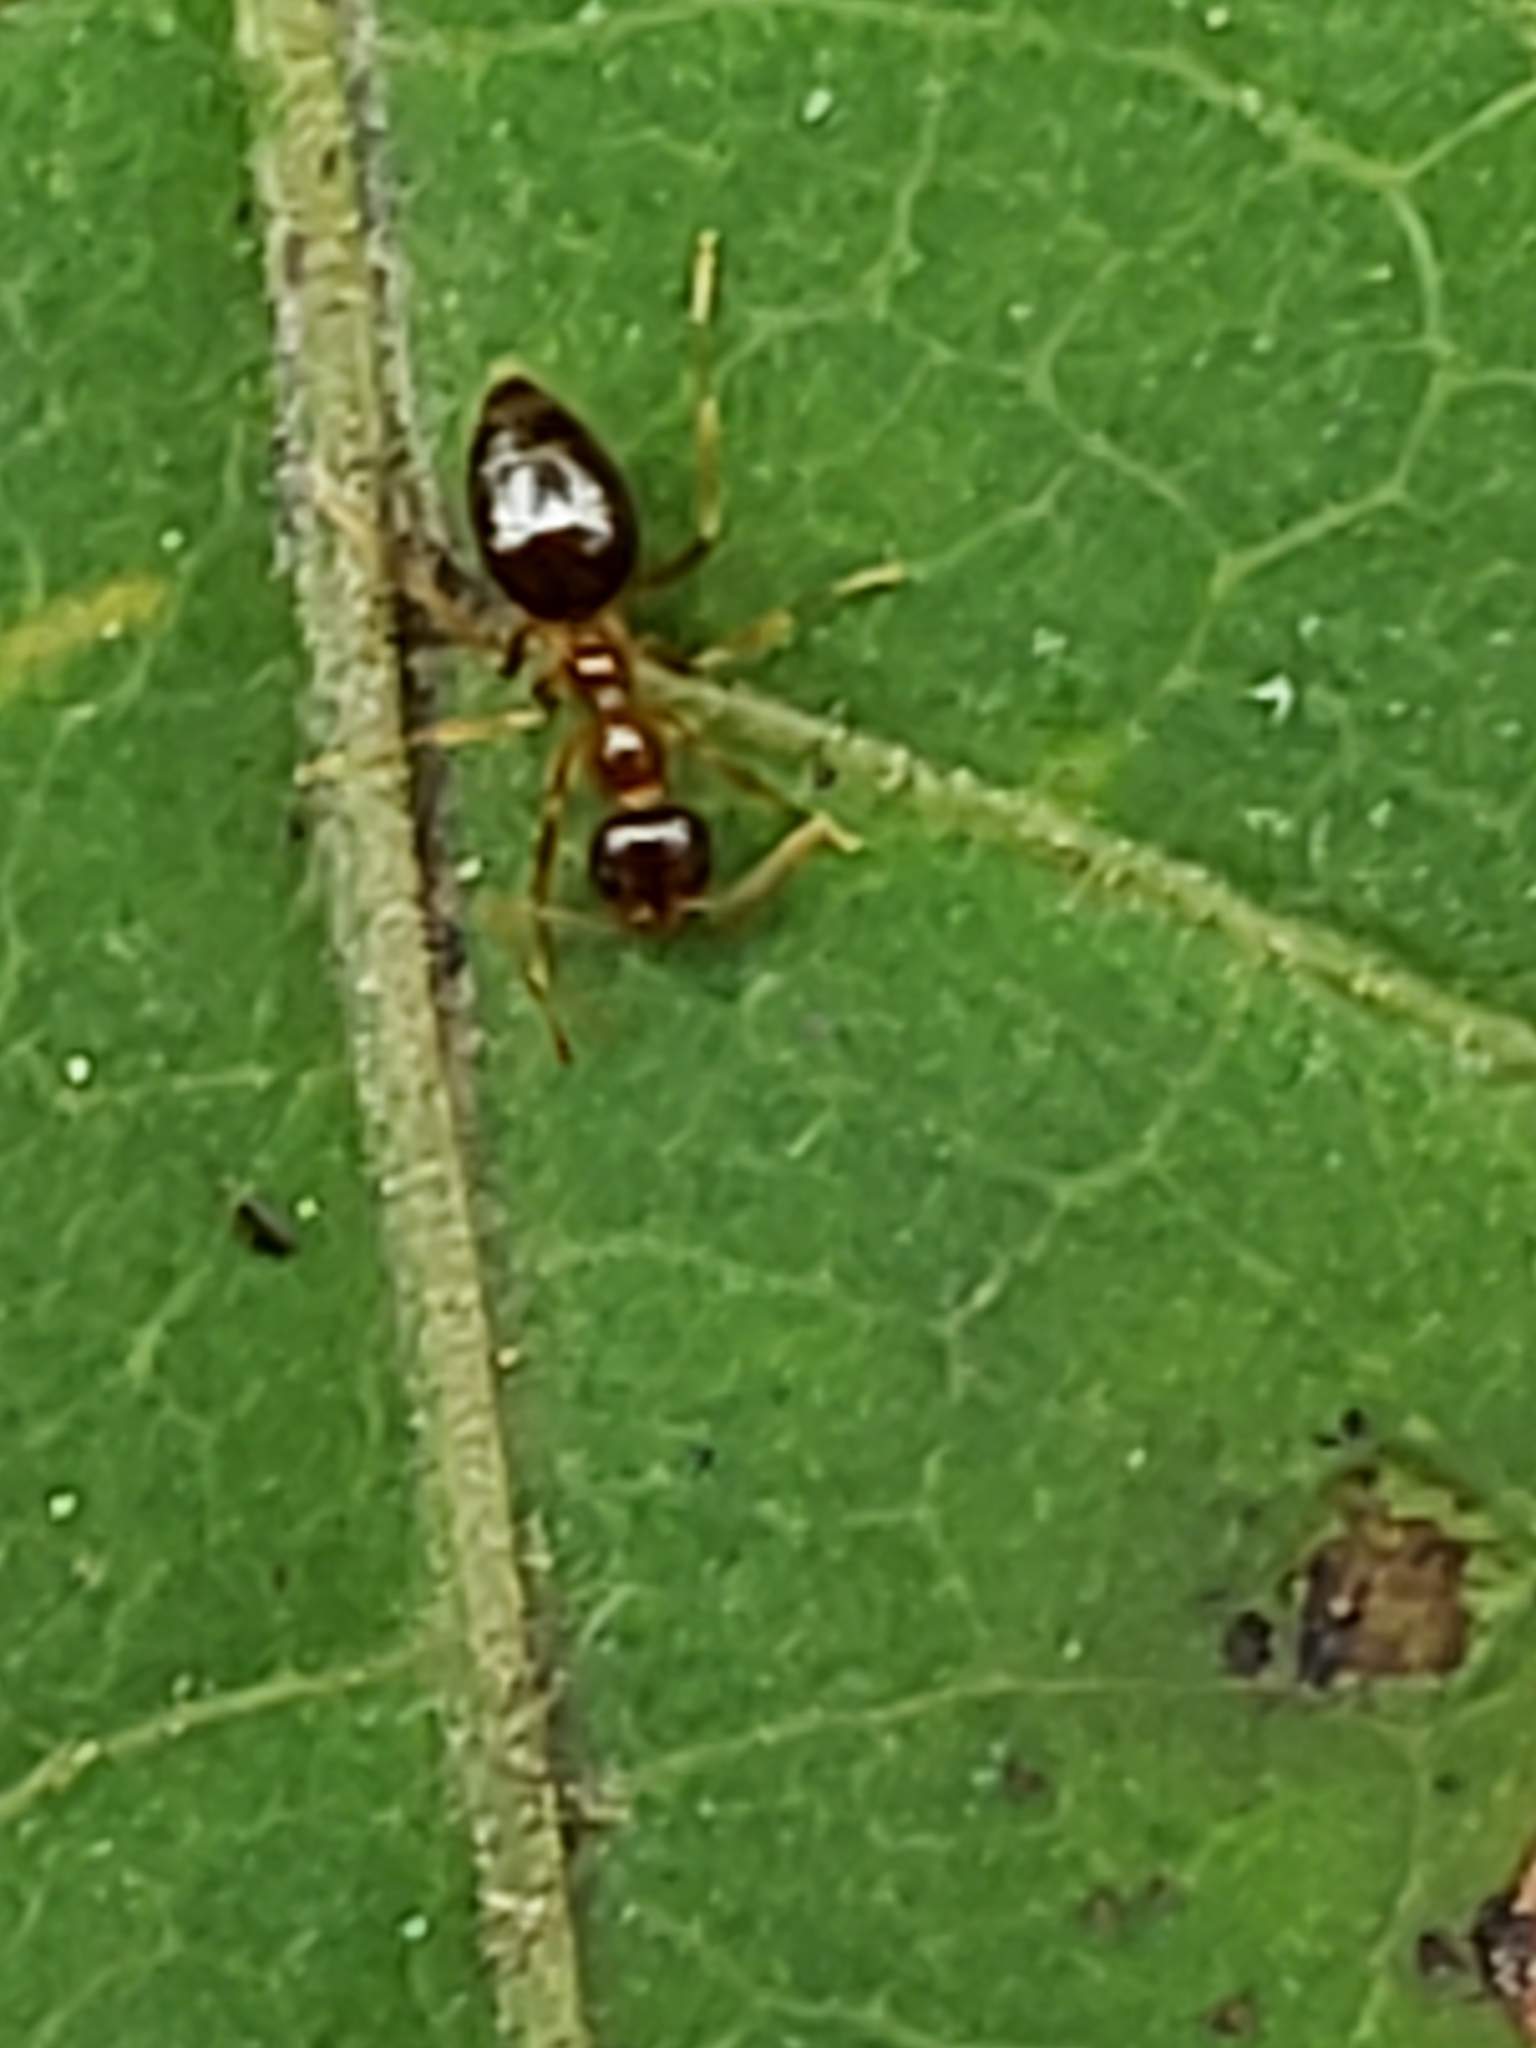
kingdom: Animalia
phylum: Arthropoda
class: Insecta
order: Hymenoptera
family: Formicidae
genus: Prenolepis
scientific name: Prenolepis imparis
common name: Small honey ant
